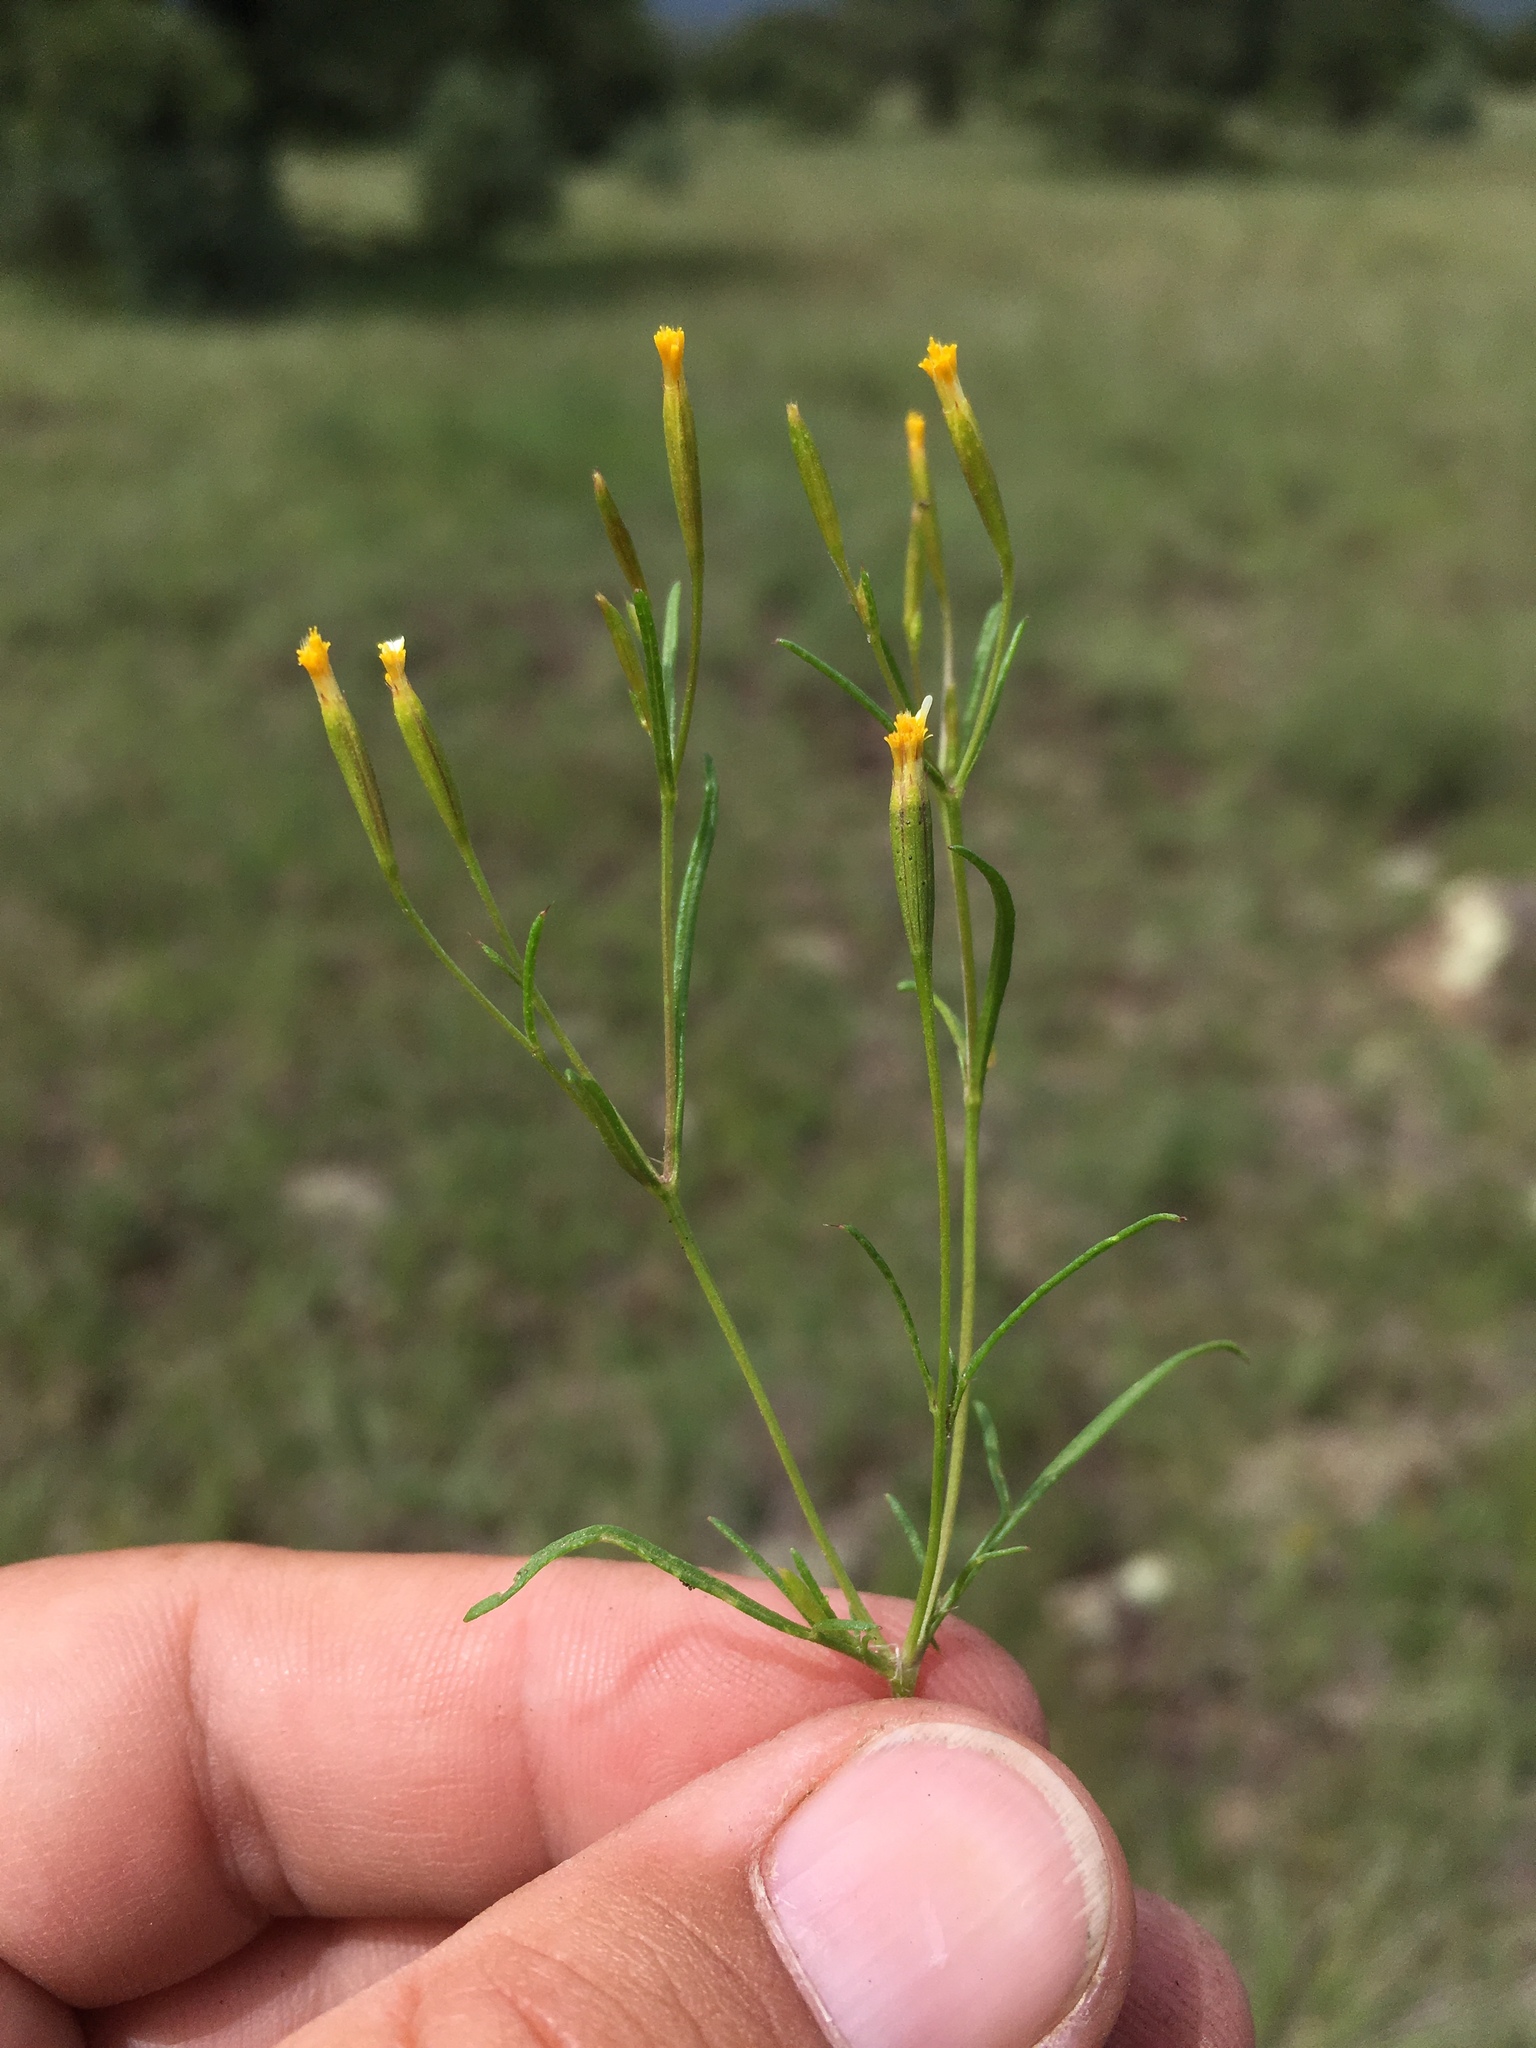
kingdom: Plantae
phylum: Tracheophyta
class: Magnoliopsida
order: Asterales
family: Asteraceae
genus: Tagetes
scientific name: Tagetes micrantha
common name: Licorice marigold
